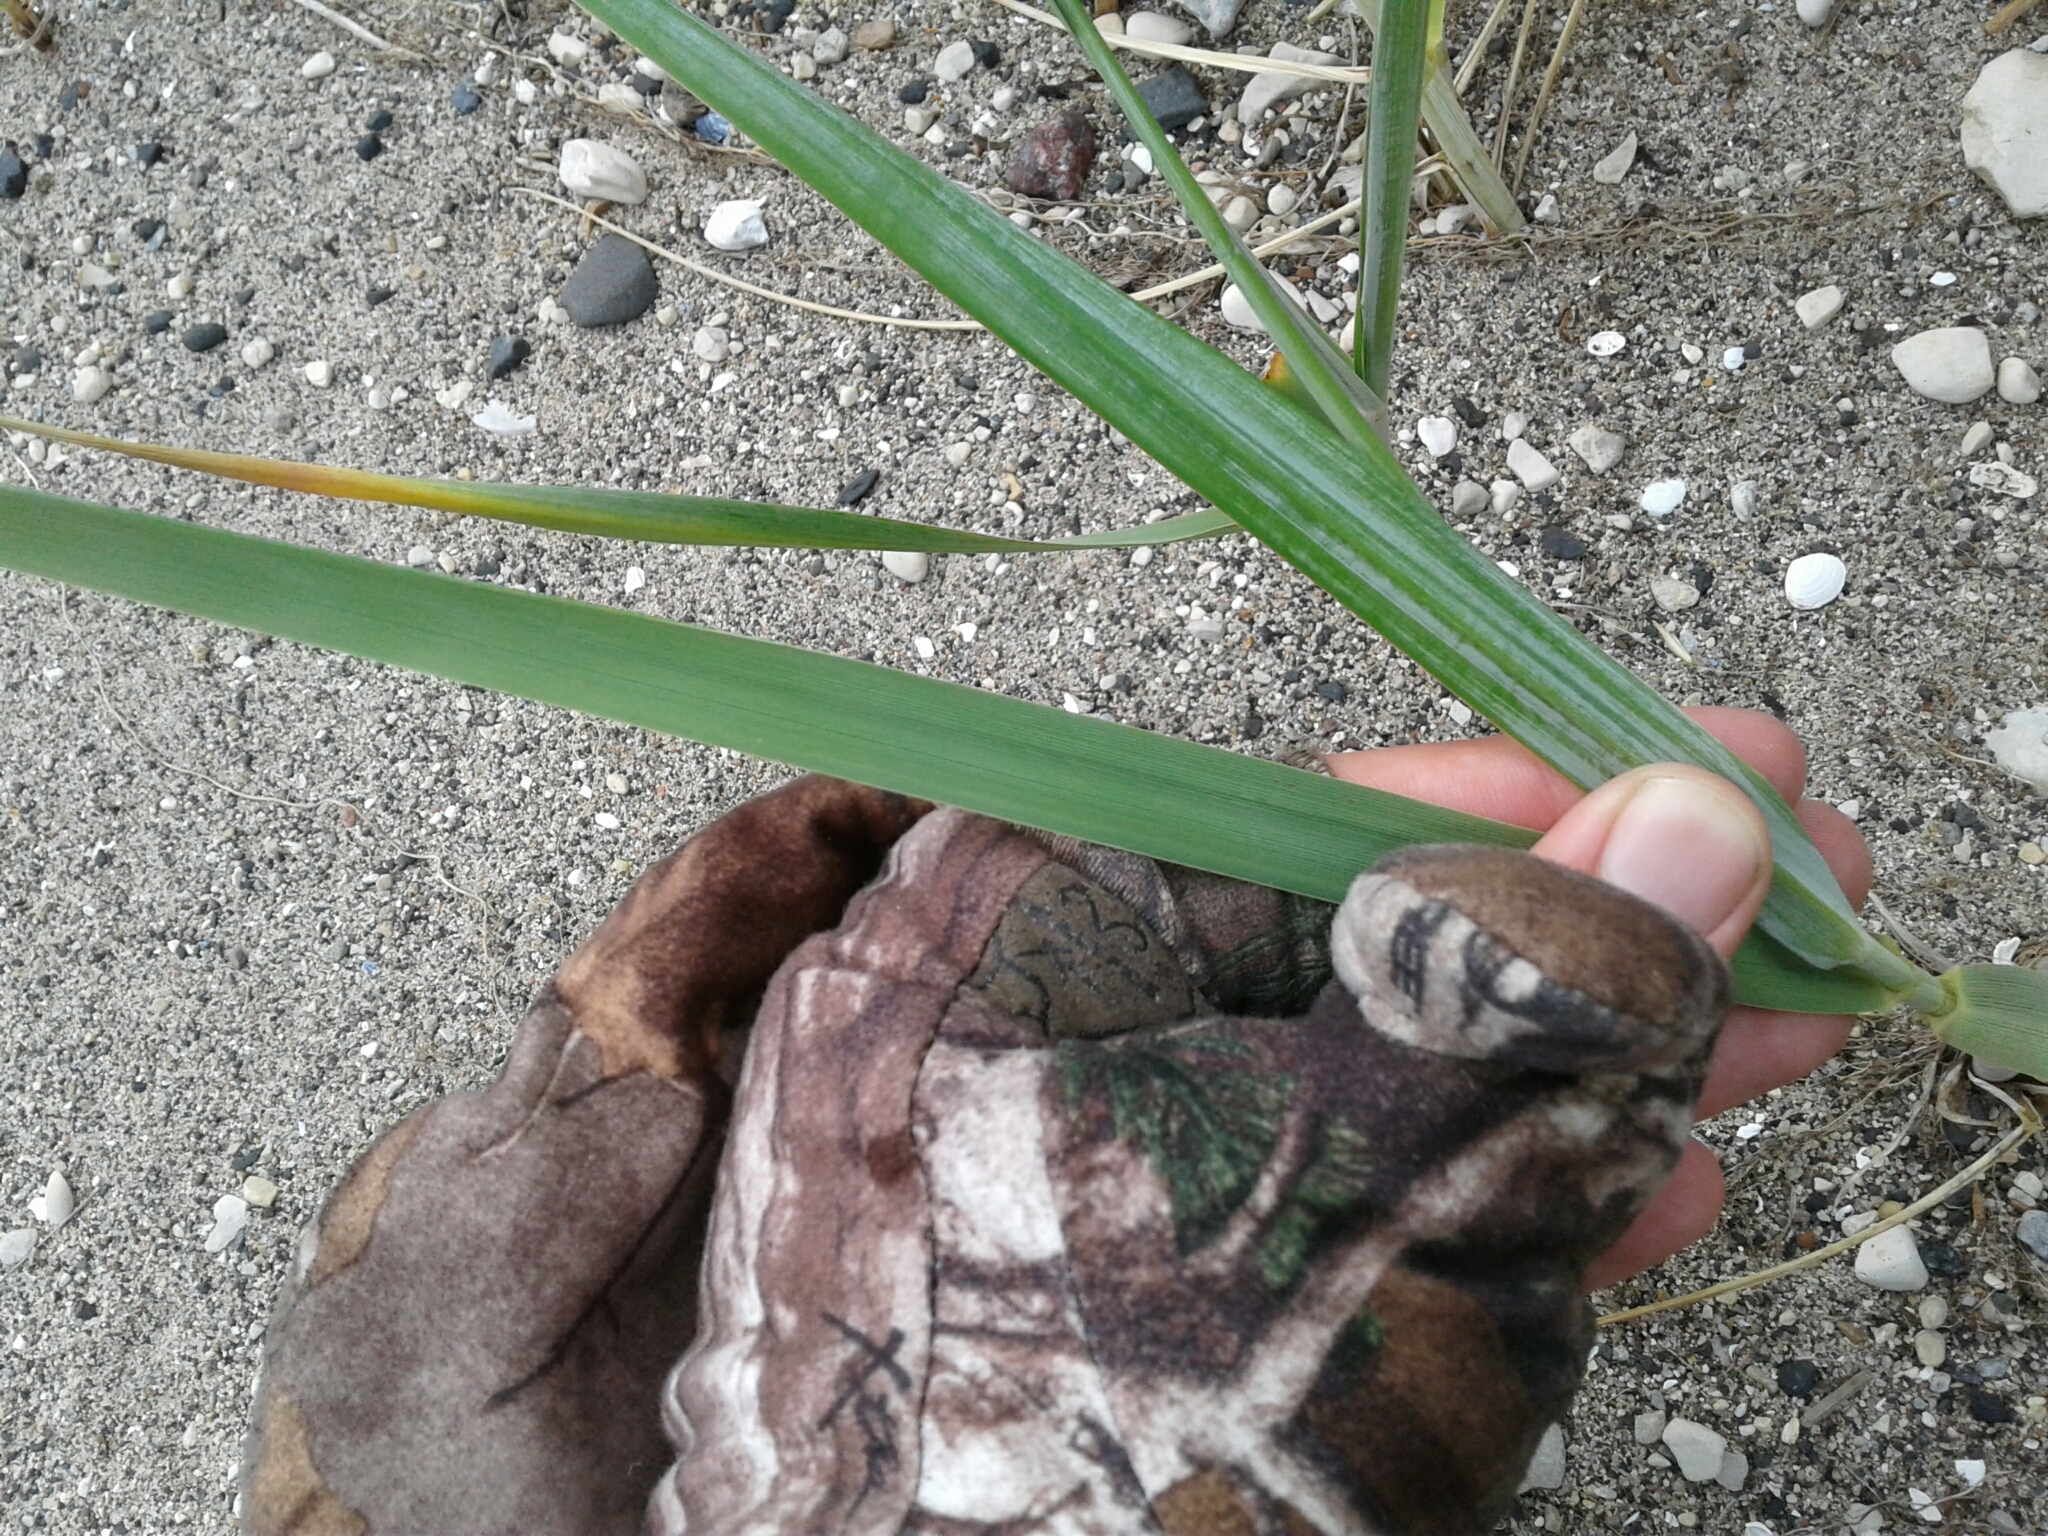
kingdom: Plantae
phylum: Tracheophyta
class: Liliopsida
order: Poales
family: Poaceae
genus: Leymus
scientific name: Leymus mollis
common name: American dune grass
